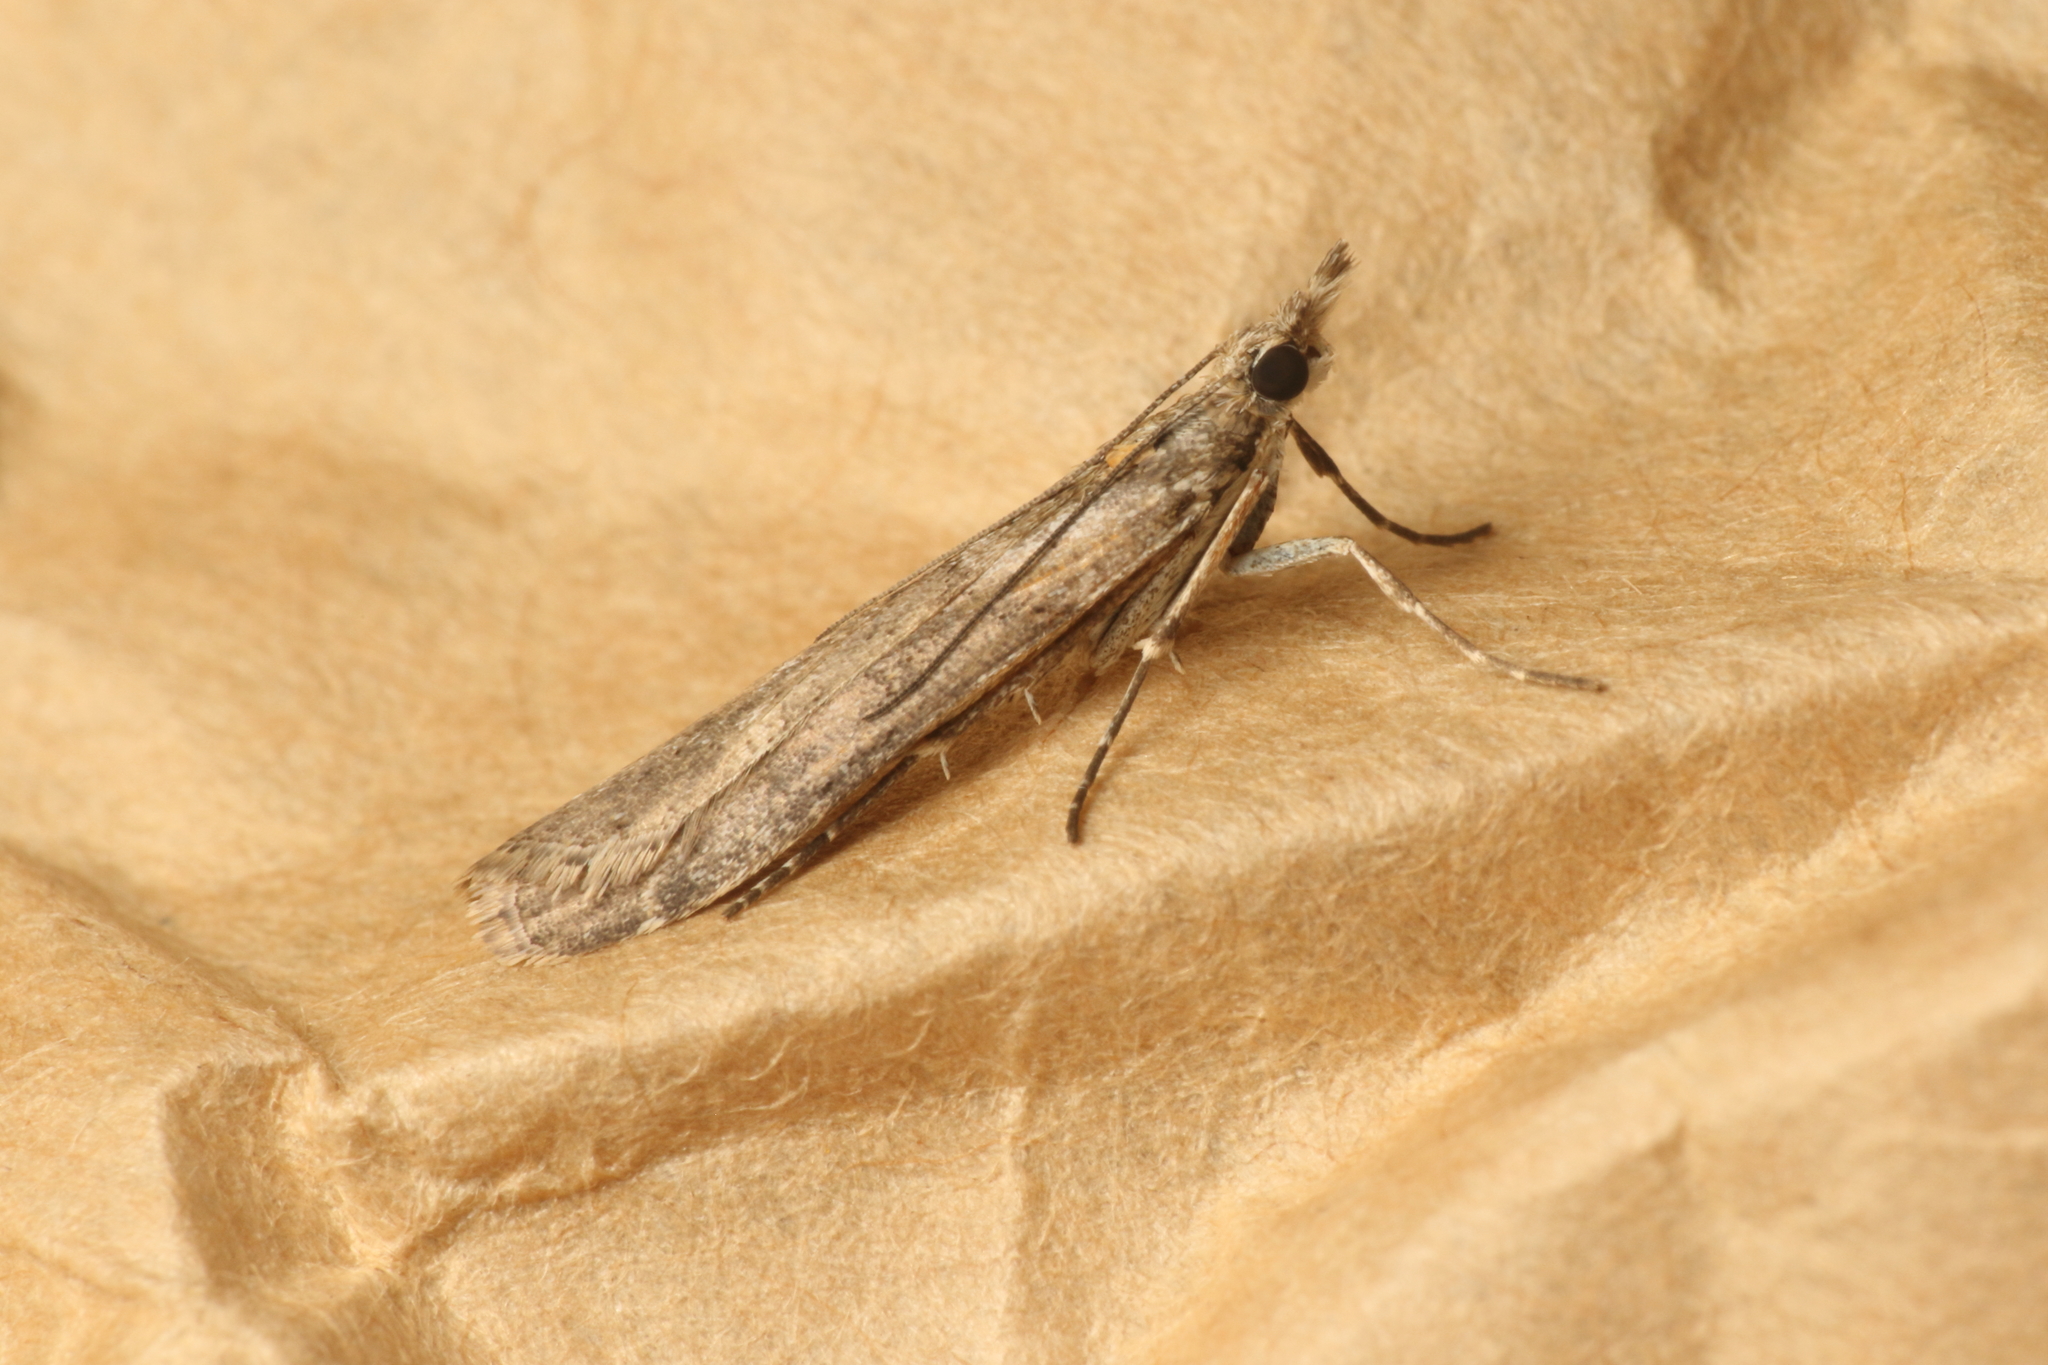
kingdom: Animalia
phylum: Arthropoda
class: Insecta
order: Lepidoptera
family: Crambidae
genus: Eudonia
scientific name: Eudonia leptalea
